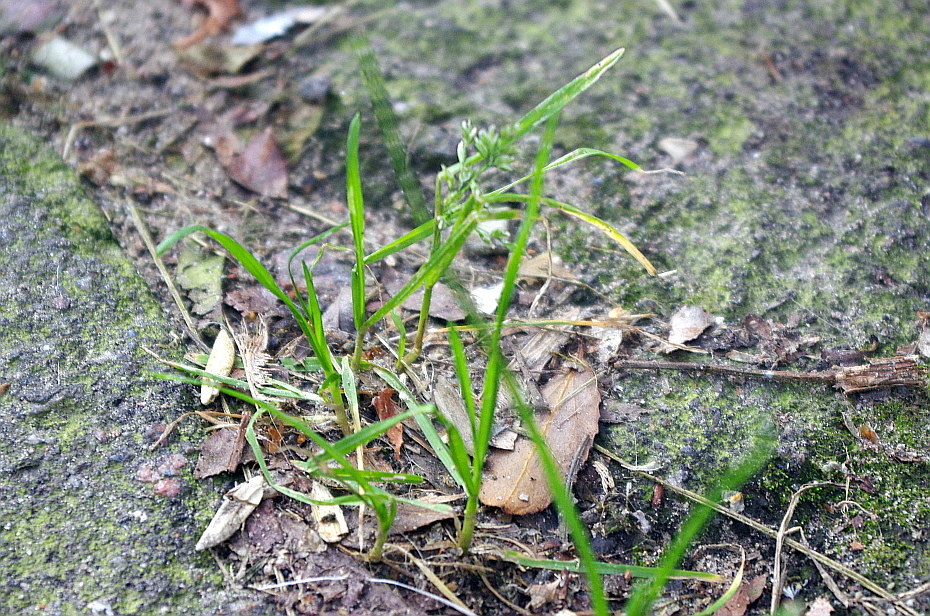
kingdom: Plantae
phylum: Tracheophyta
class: Liliopsida
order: Poales
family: Poaceae
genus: Poa
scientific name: Poa annua
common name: Annual bluegrass
